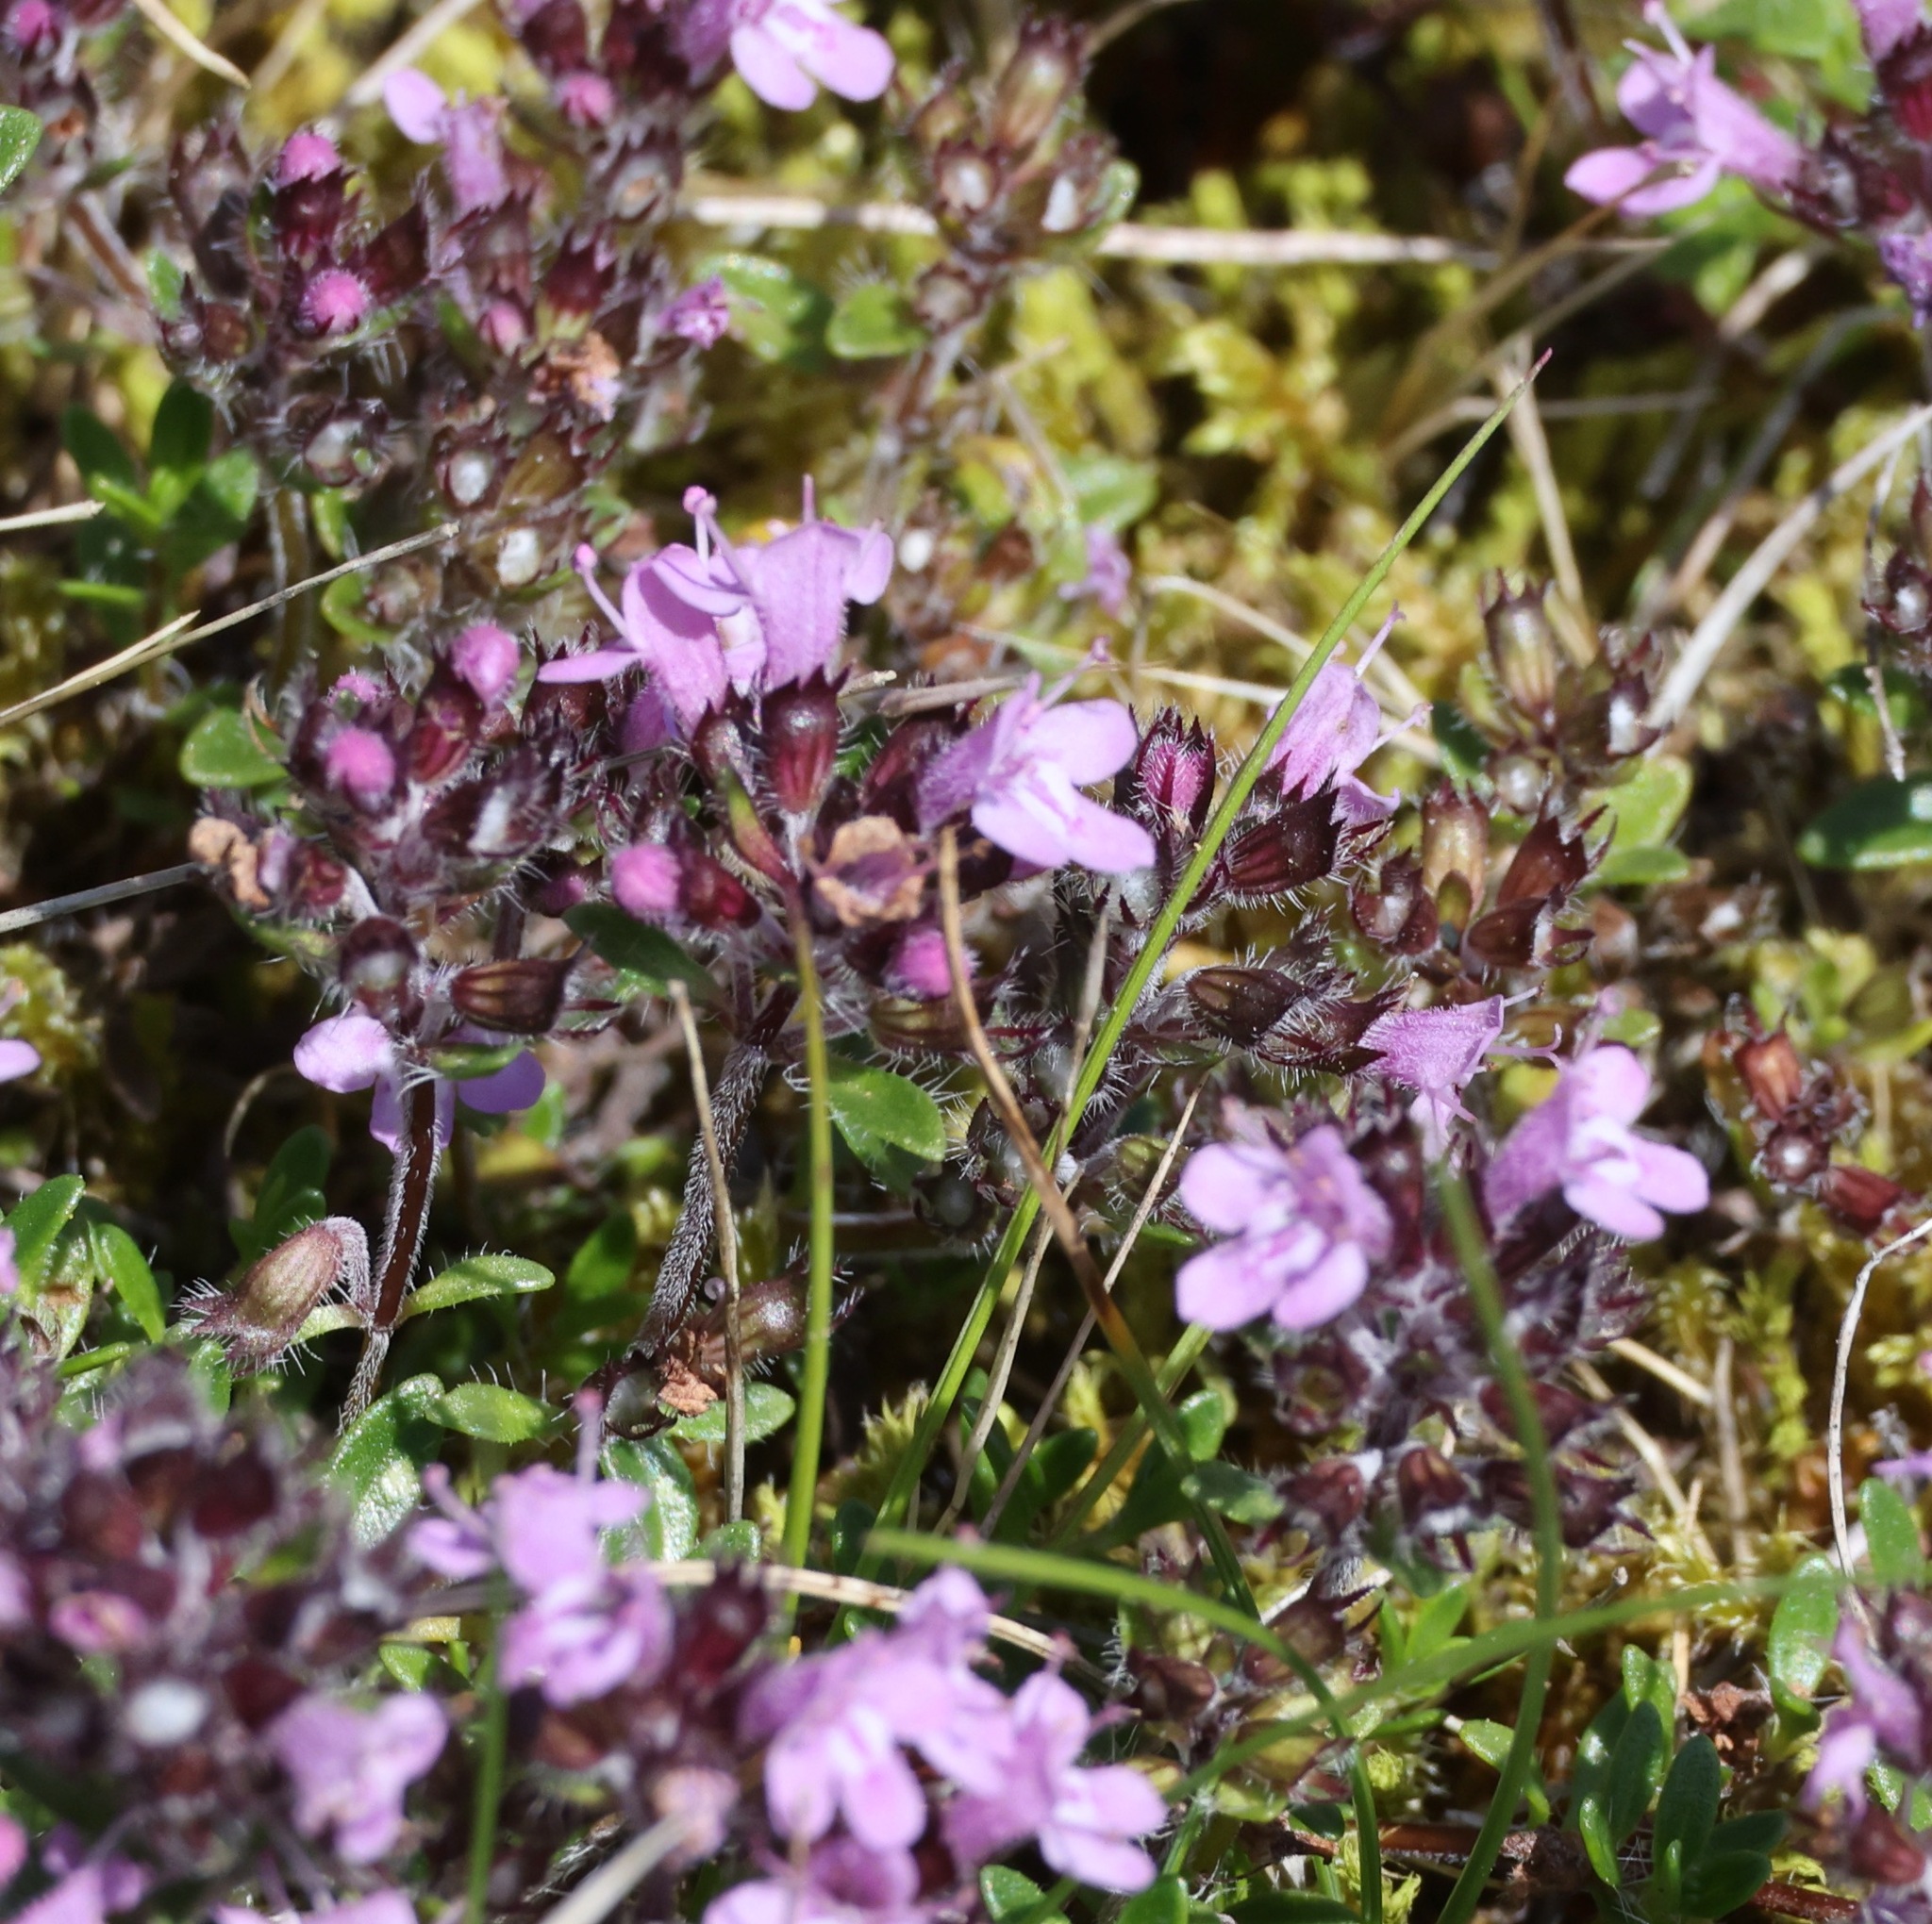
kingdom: Plantae
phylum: Tracheophyta
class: Magnoliopsida
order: Lamiales
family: Lamiaceae
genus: Thymus
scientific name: Thymus praecox
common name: Wild thyme
